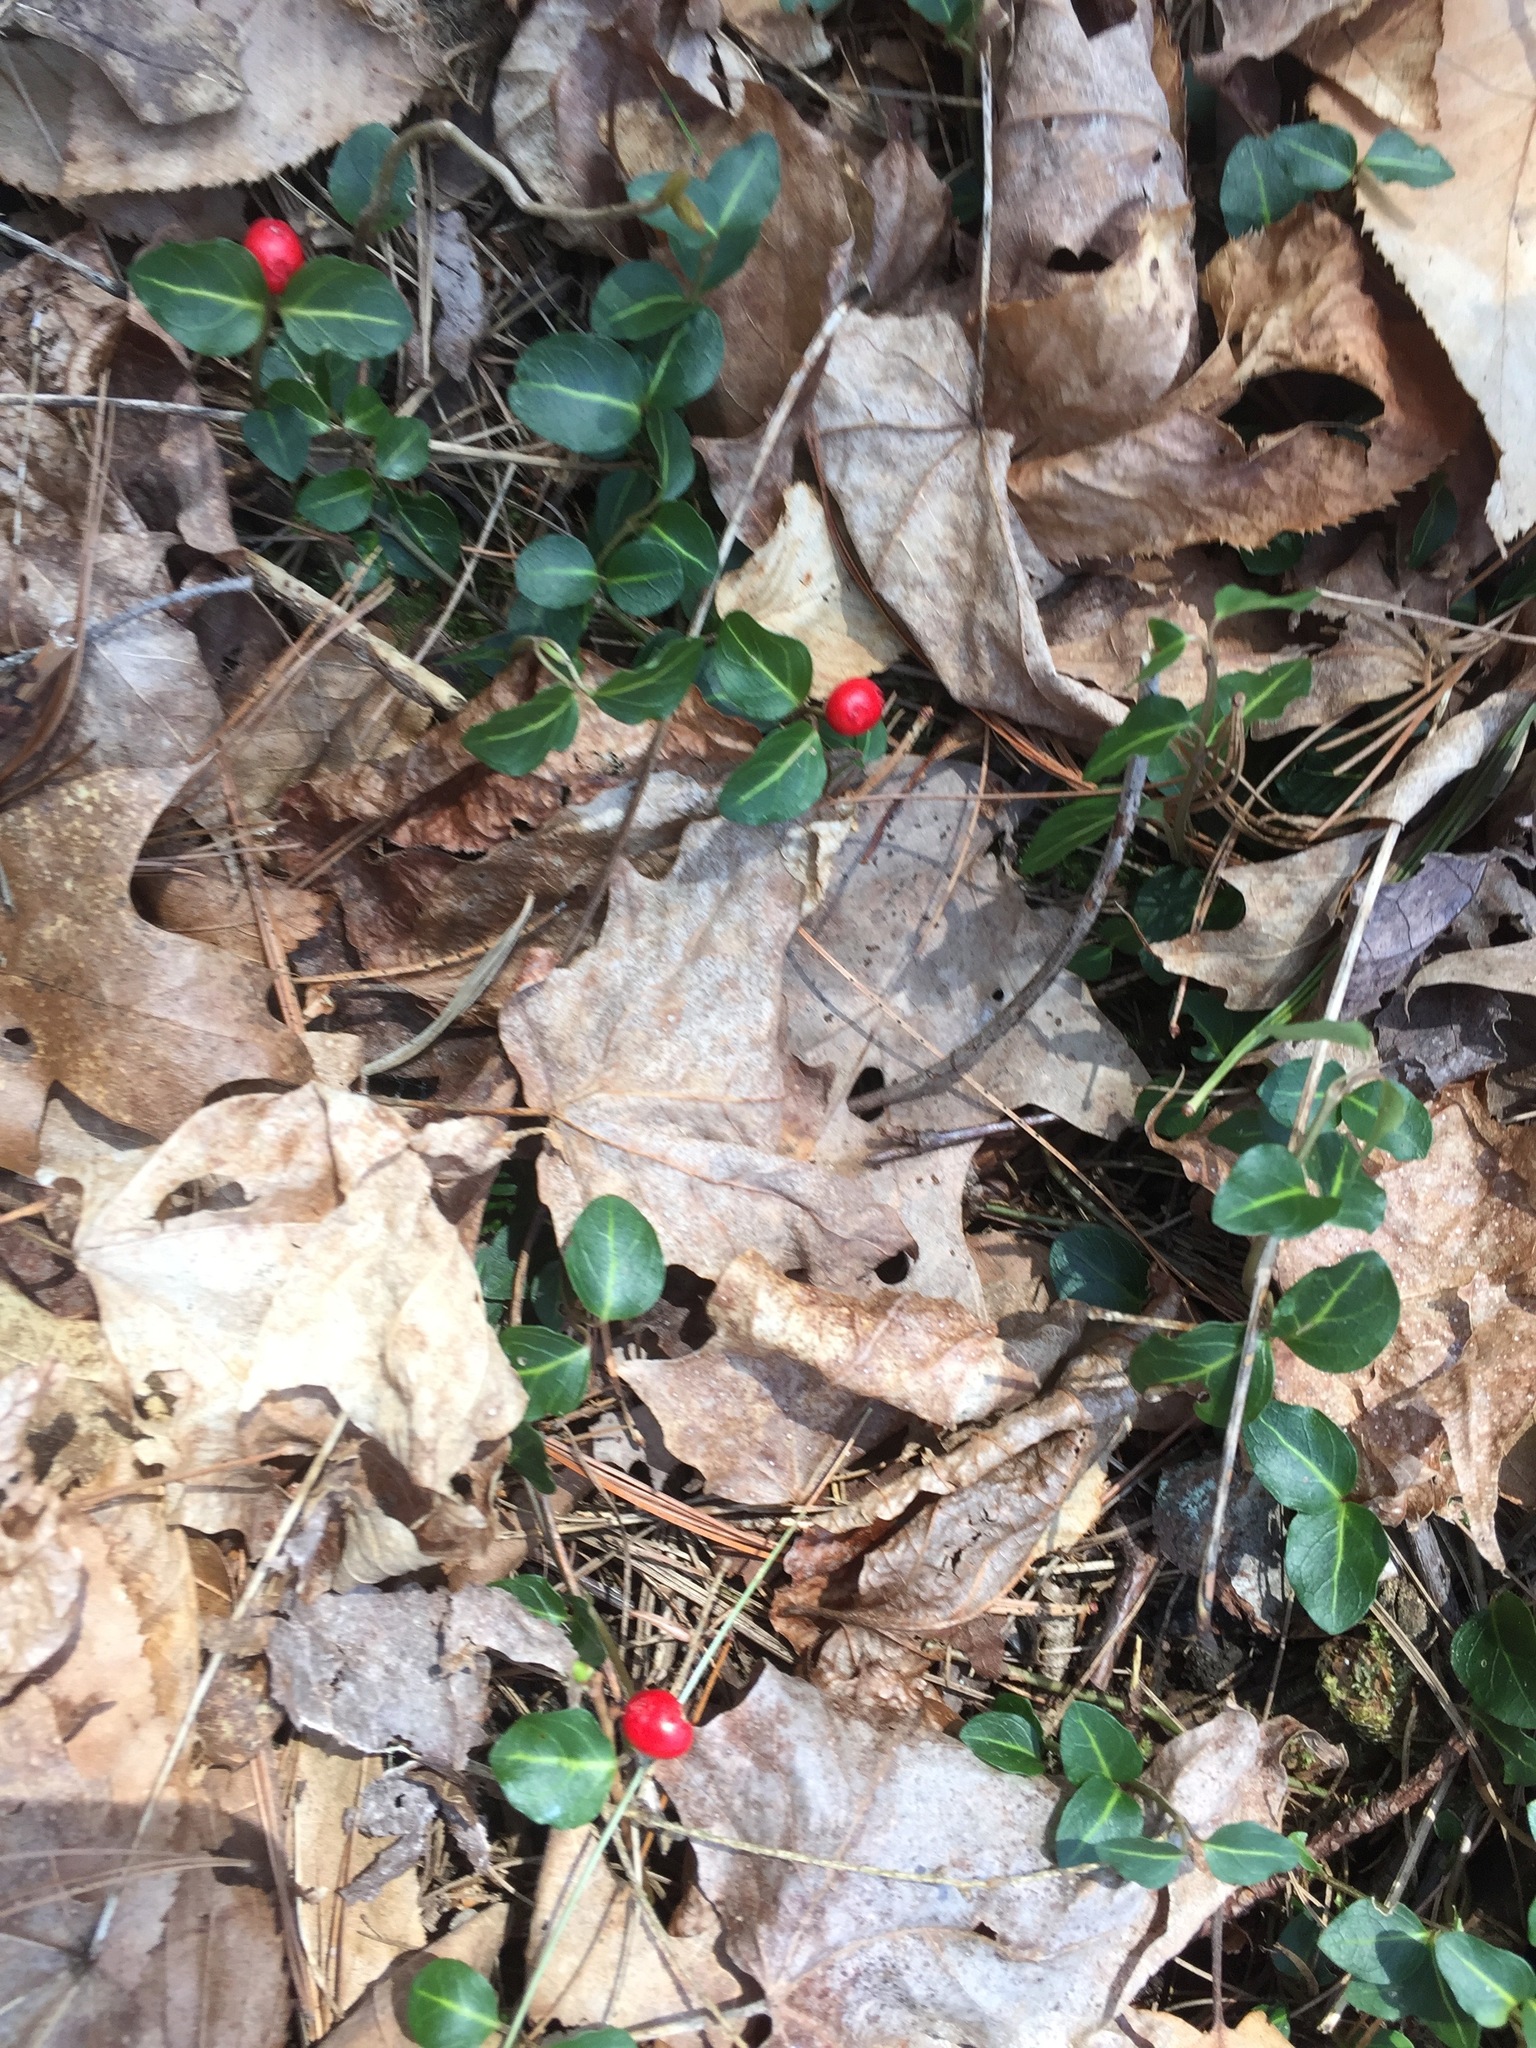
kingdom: Plantae
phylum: Tracheophyta
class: Magnoliopsida
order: Gentianales
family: Rubiaceae
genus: Mitchella
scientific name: Mitchella repens
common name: Partridge-berry
